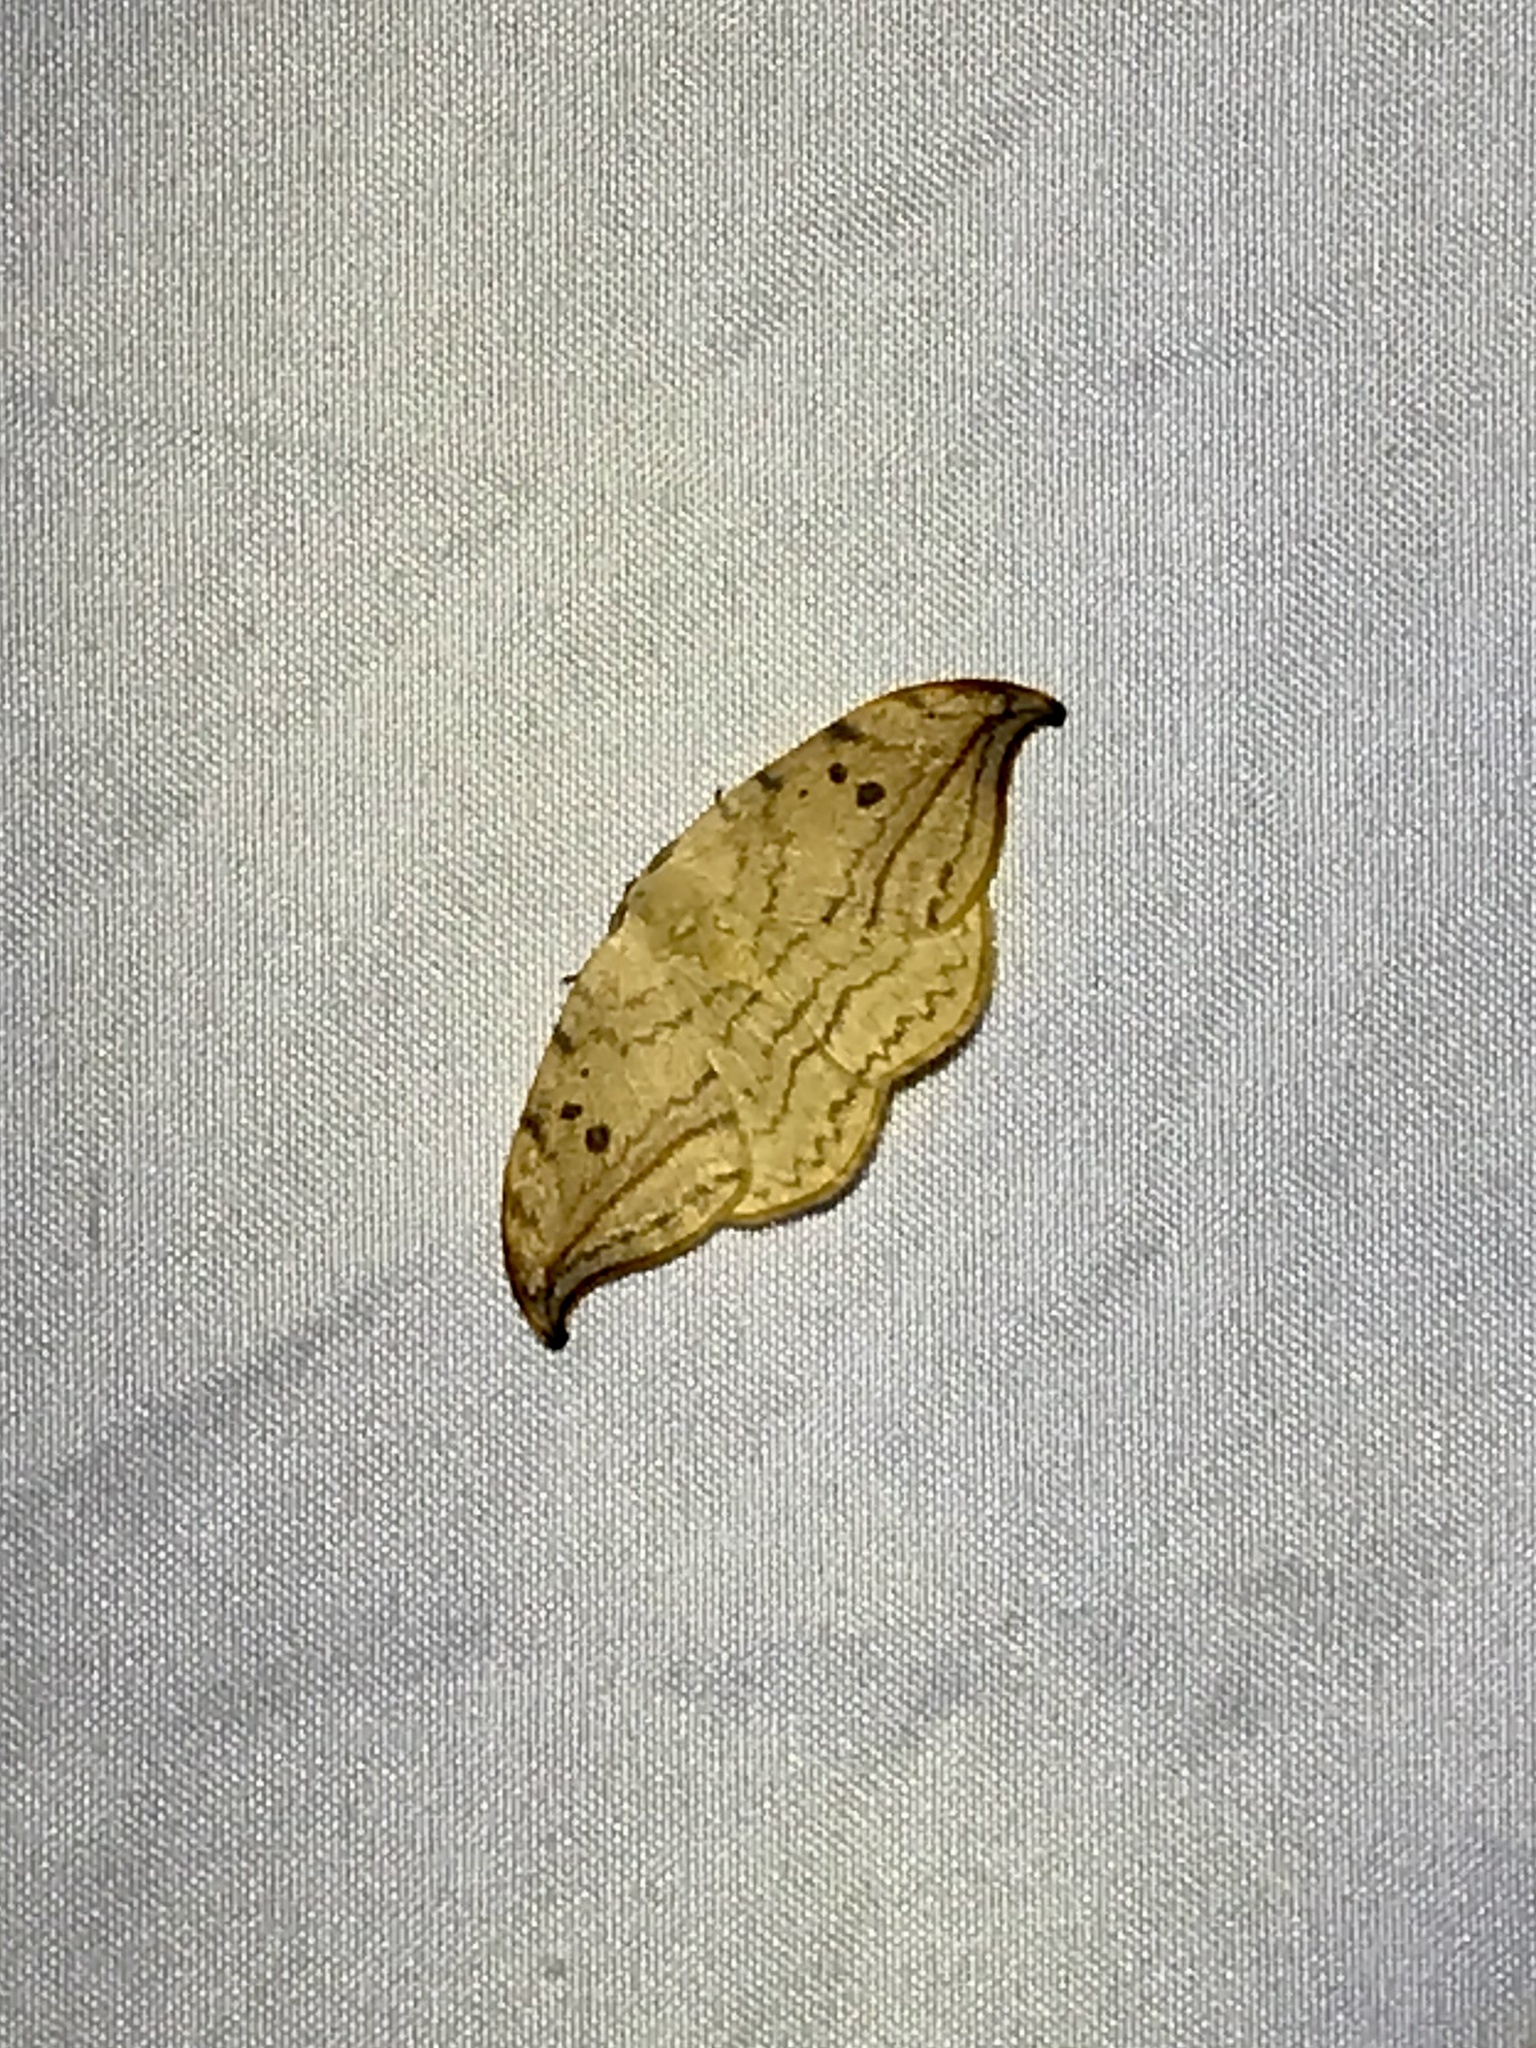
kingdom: Animalia
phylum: Arthropoda
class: Insecta
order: Lepidoptera
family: Drepanidae
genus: Drepana
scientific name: Drepana arcuata
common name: Arched hooktip moth
